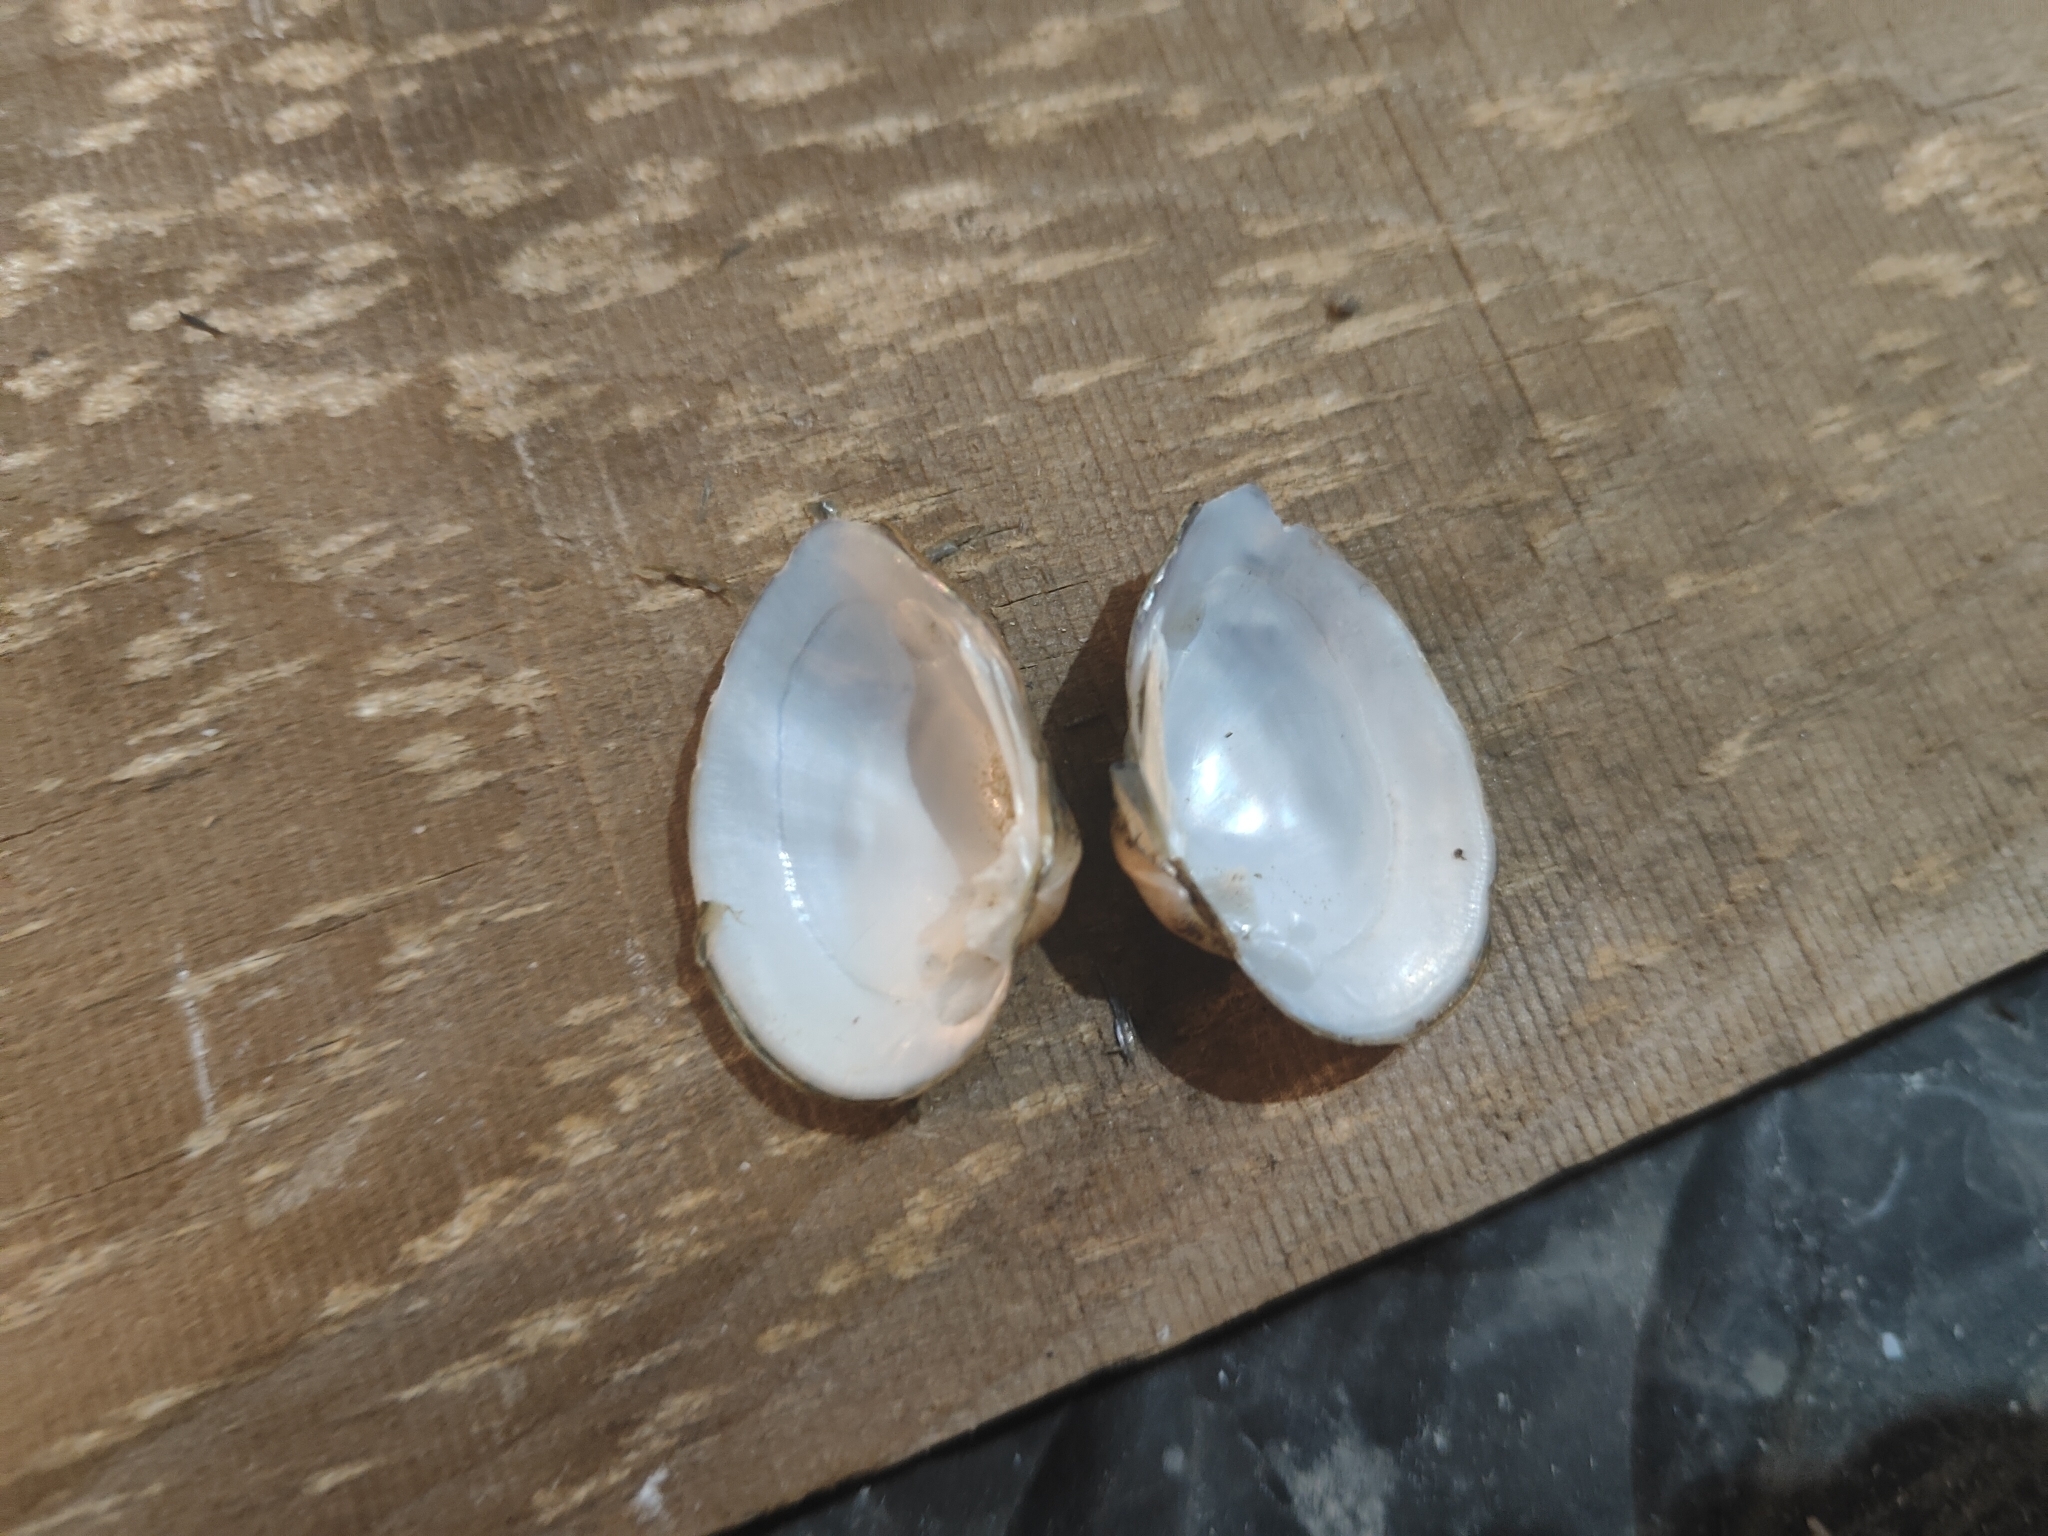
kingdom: Animalia
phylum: Mollusca
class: Bivalvia
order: Unionida
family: Unionidae
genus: Truncilla
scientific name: Truncilla truncata
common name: Deertoe
